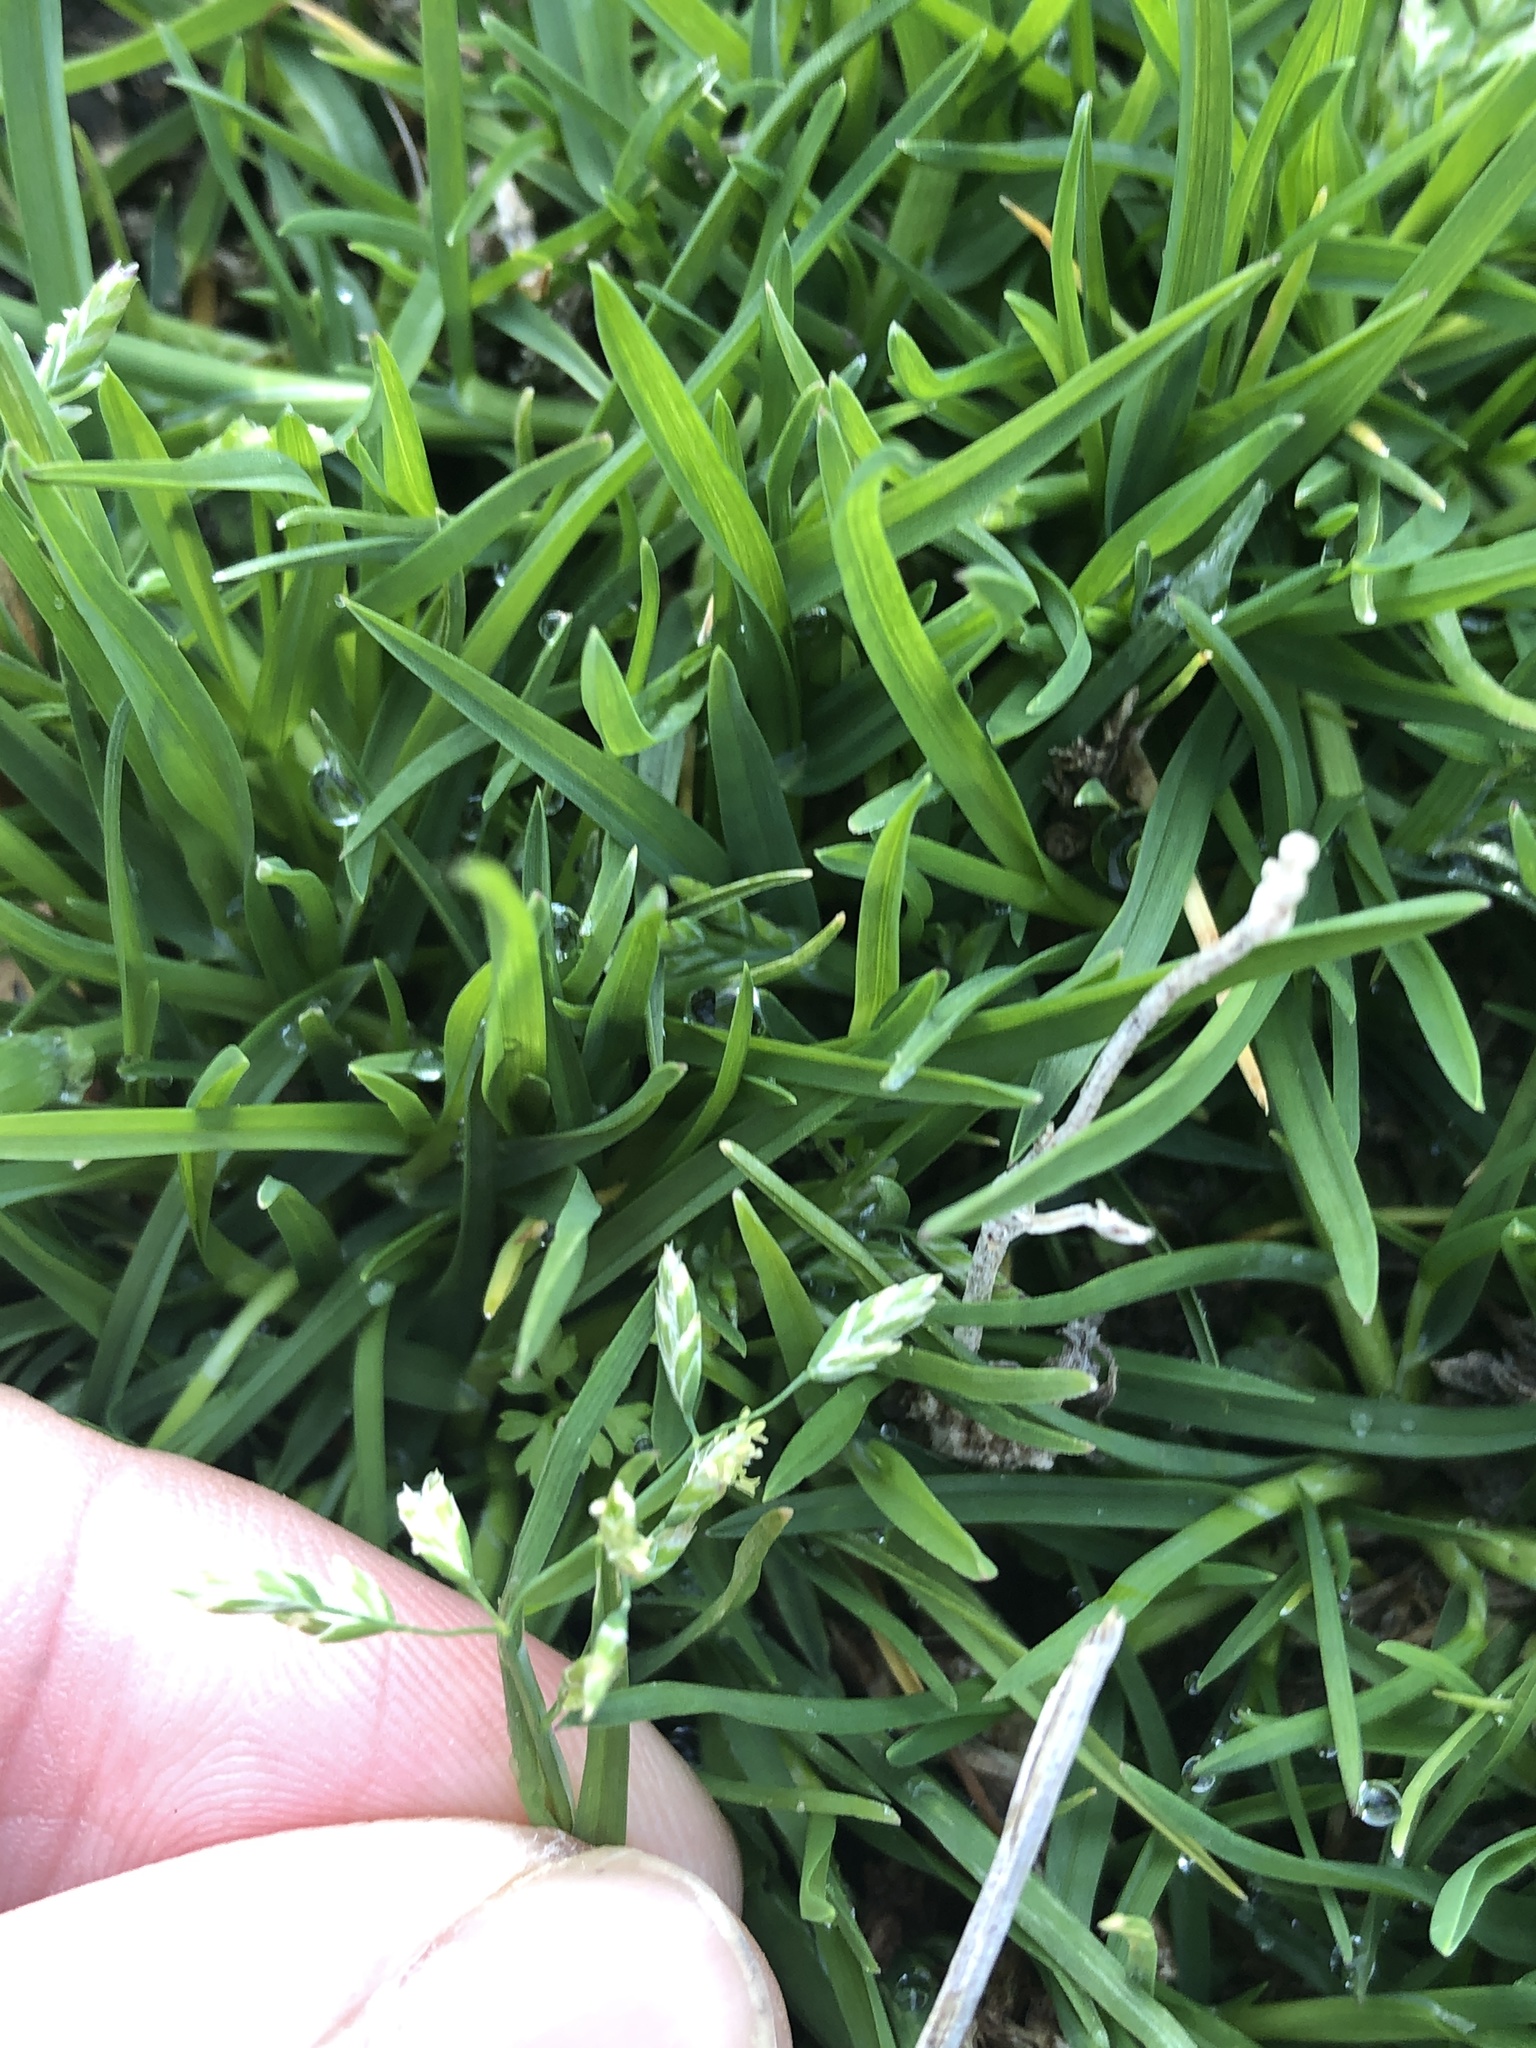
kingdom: Plantae
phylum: Tracheophyta
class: Liliopsida
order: Poales
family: Poaceae
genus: Poa
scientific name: Poa annua
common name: Annual bluegrass
